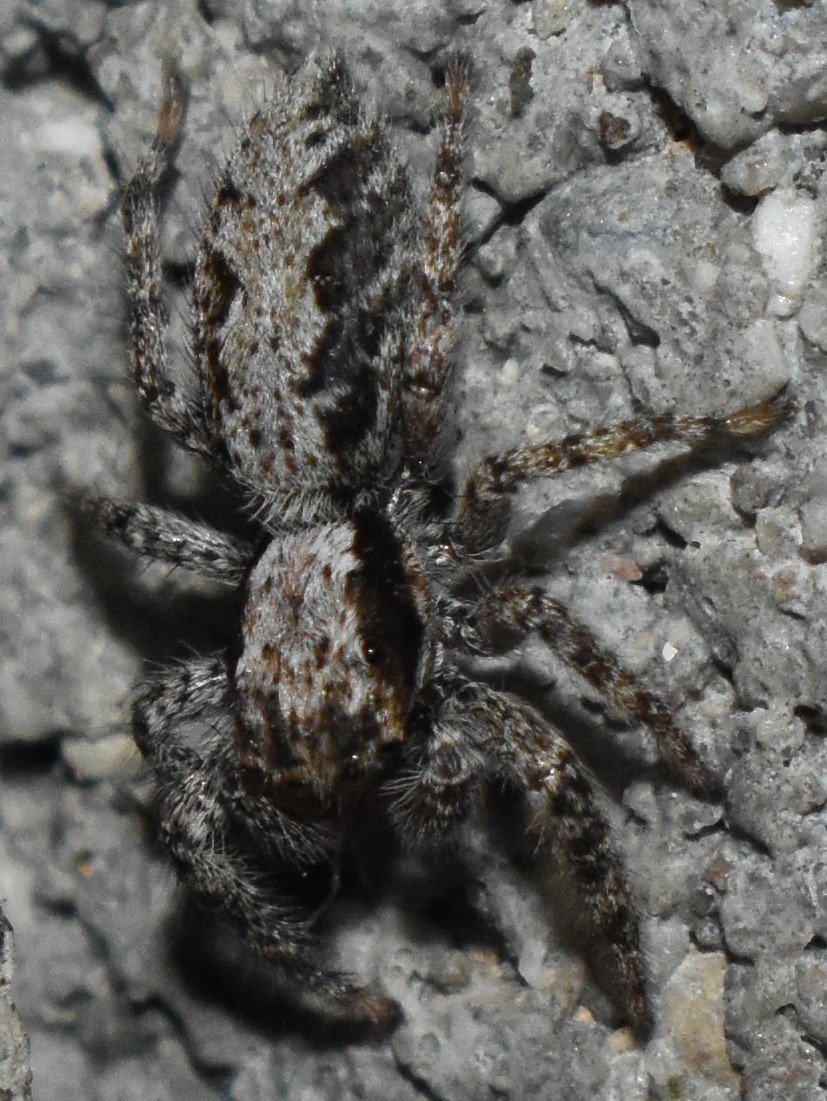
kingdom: Animalia
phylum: Arthropoda
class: Arachnida
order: Araneae
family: Salticidae
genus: Platycryptus
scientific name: Platycryptus californicus
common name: Jumping spiders
